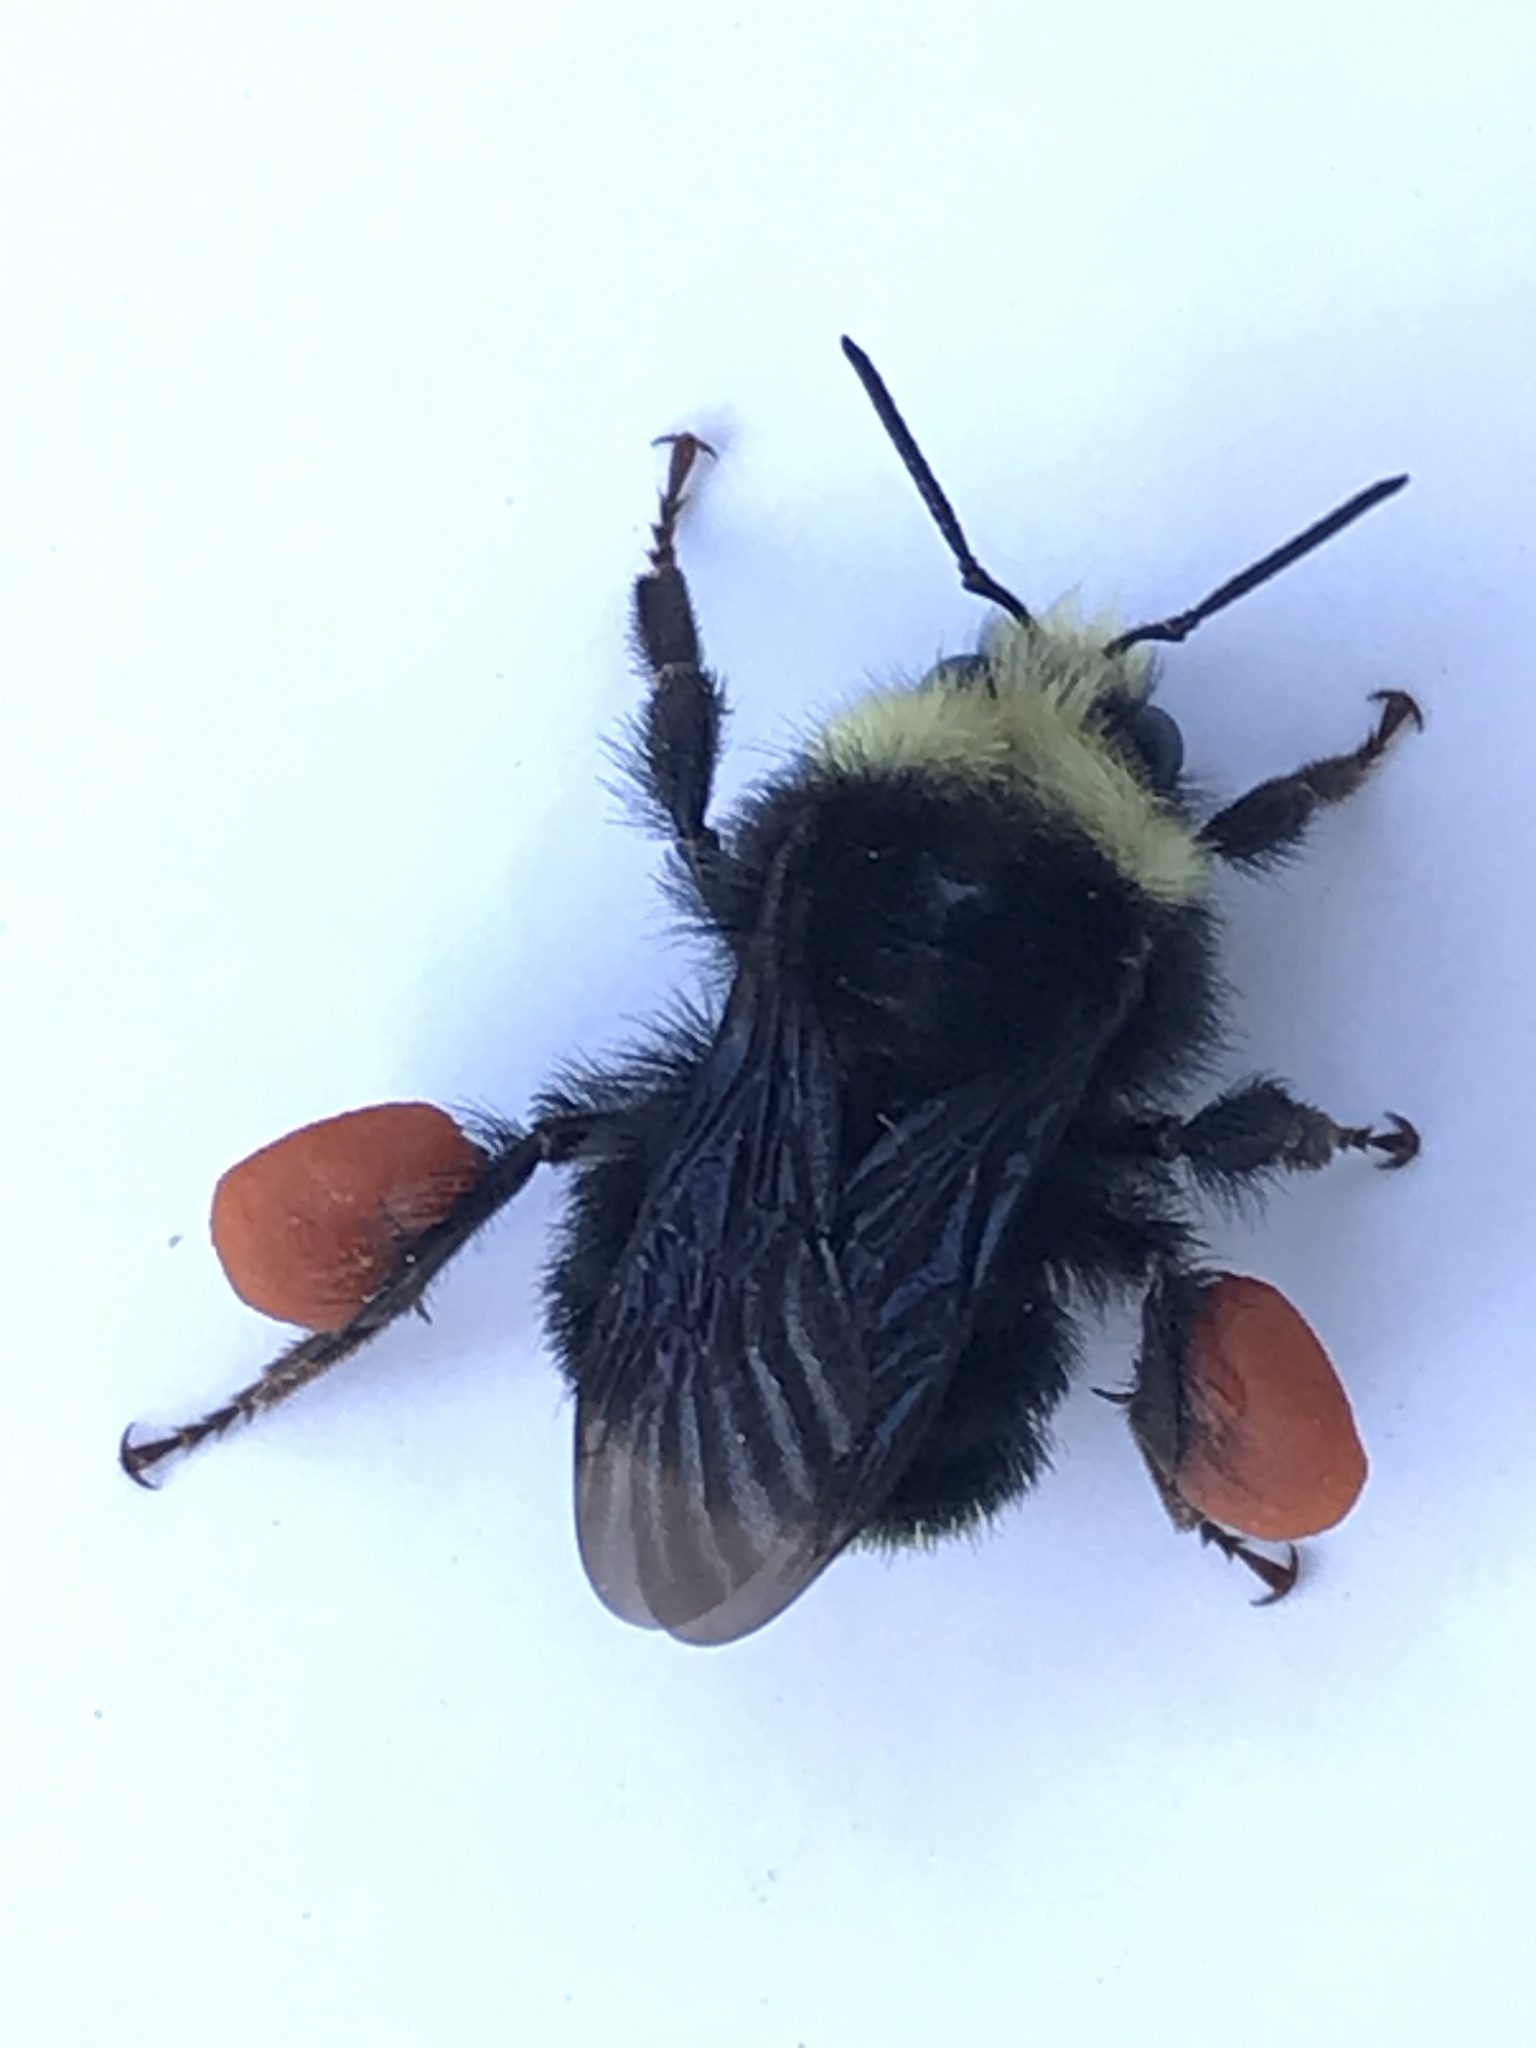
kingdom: Animalia
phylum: Arthropoda
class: Insecta
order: Hymenoptera
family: Apidae
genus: Bombus
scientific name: Bombus vosnesenskii
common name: Vosnesensky bumble bee
